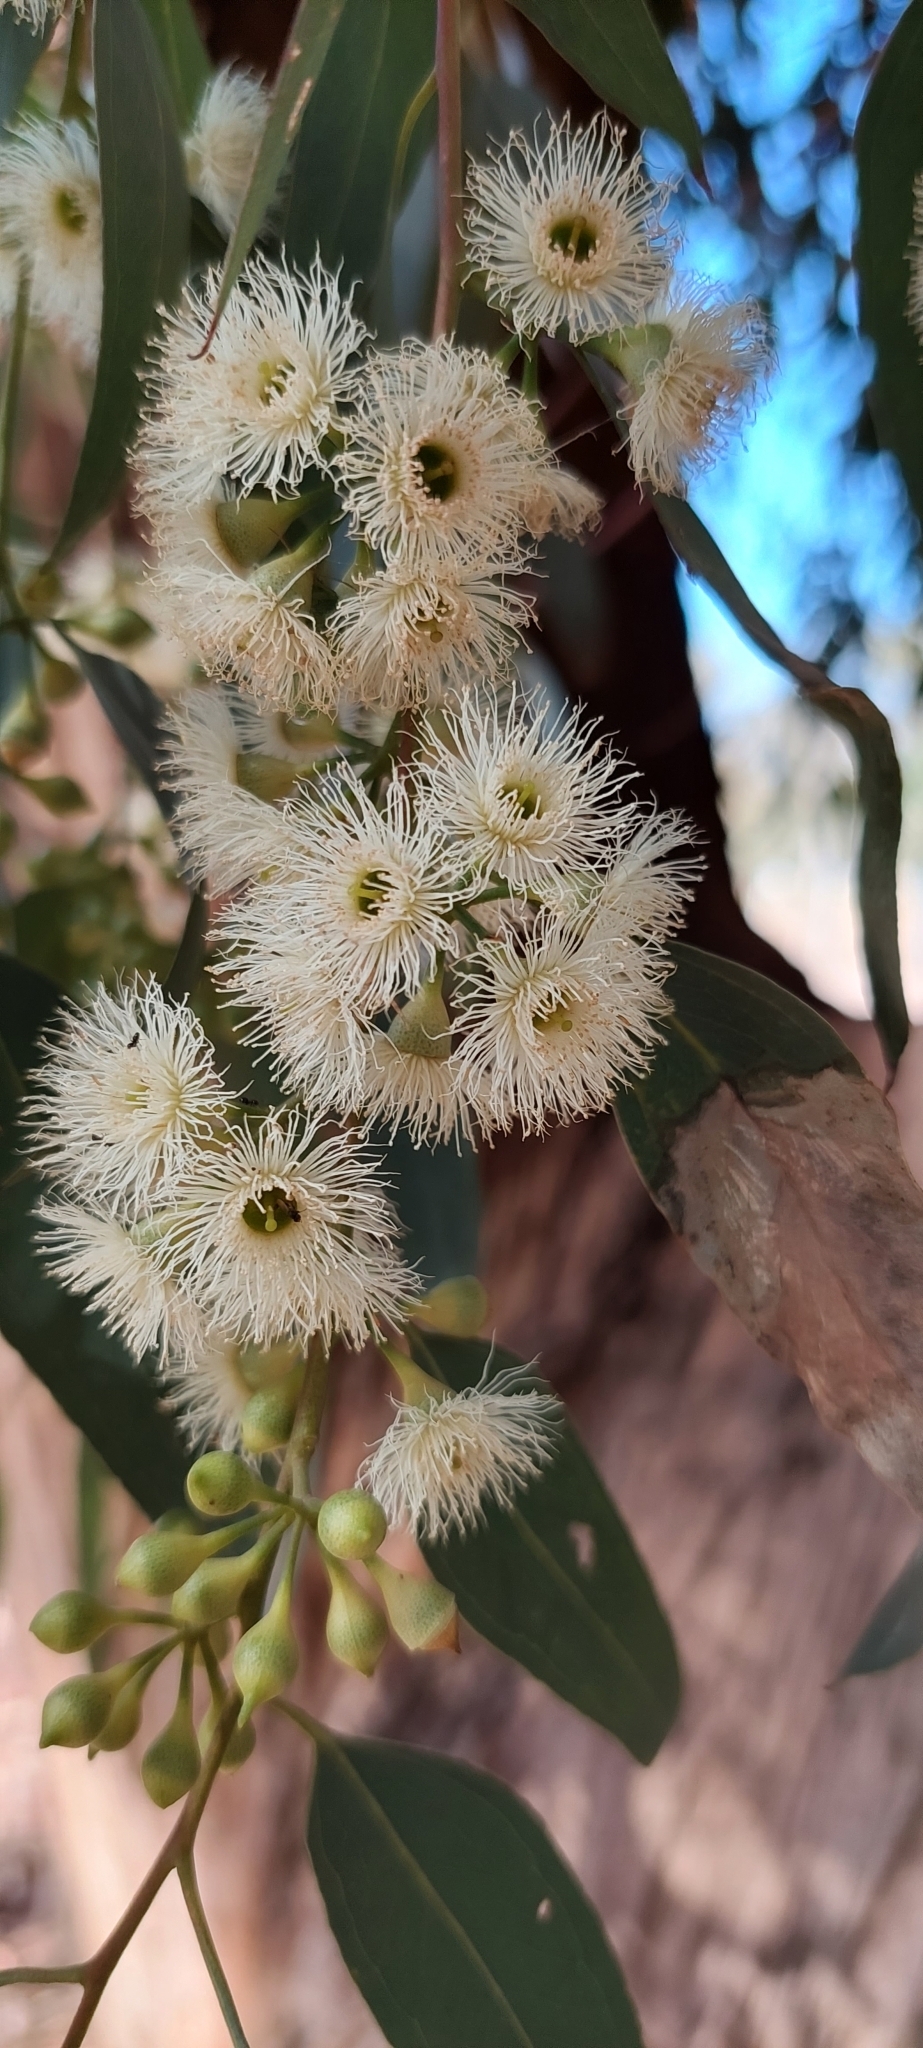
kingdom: Plantae
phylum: Tracheophyta
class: Magnoliopsida
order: Myrtales
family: Myrtaceae
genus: Eucalyptus
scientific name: Eucalyptus camaldulensis
